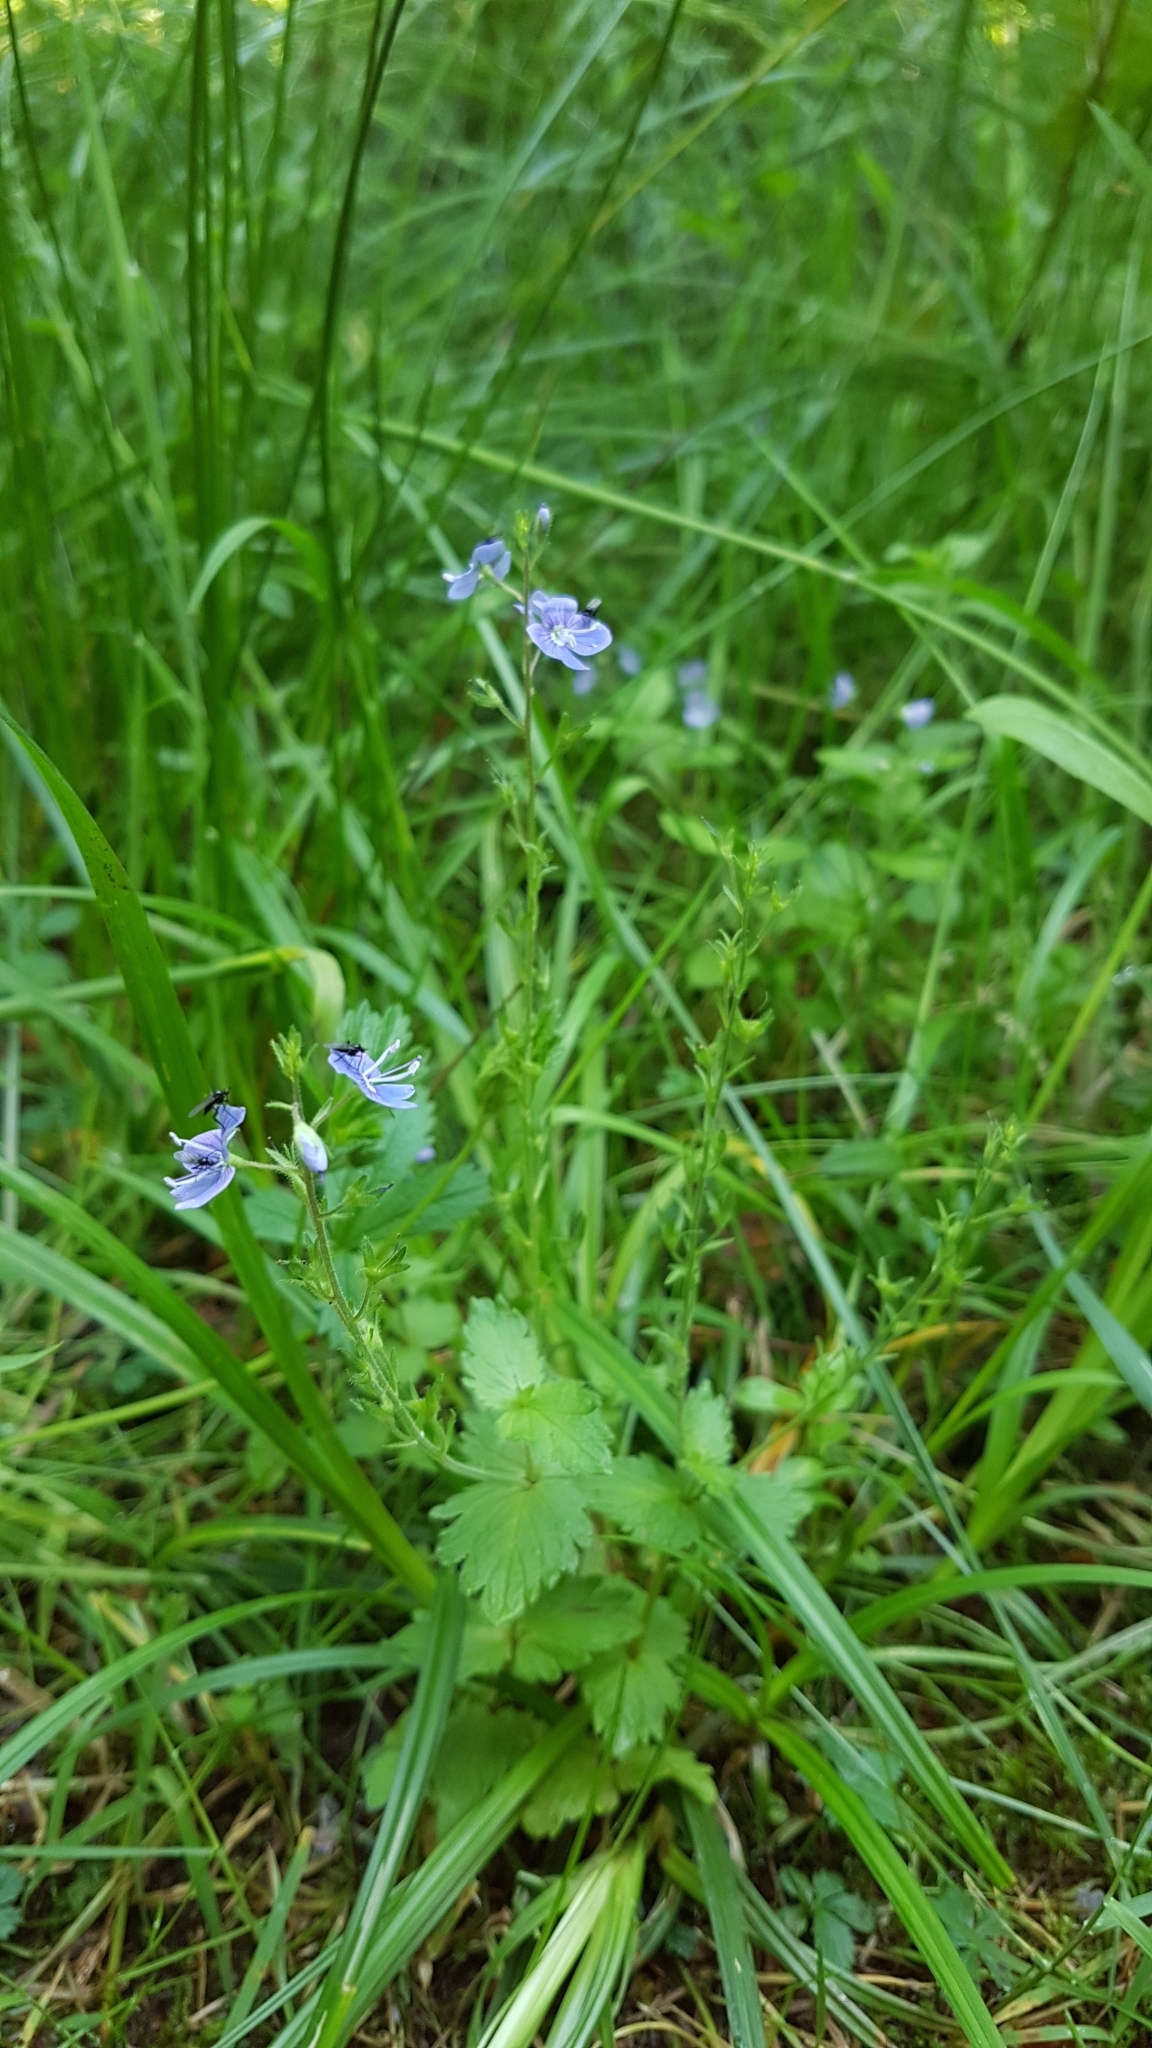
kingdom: Plantae
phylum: Tracheophyta
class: Magnoliopsida
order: Lamiales
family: Plantaginaceae
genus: Veronica
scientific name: Veronica chamaedrys
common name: Germander speedwell
